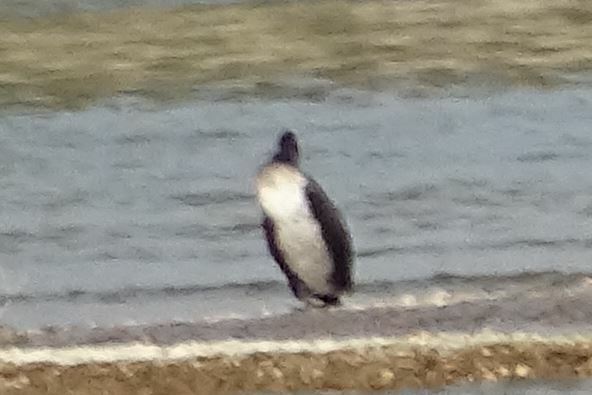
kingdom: Animalia
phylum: Chordata
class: Aves
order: Suliformes
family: Phalacrocoracidae
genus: Phalacrocorax
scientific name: Phalacrocorax carbo
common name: Great cormorant
